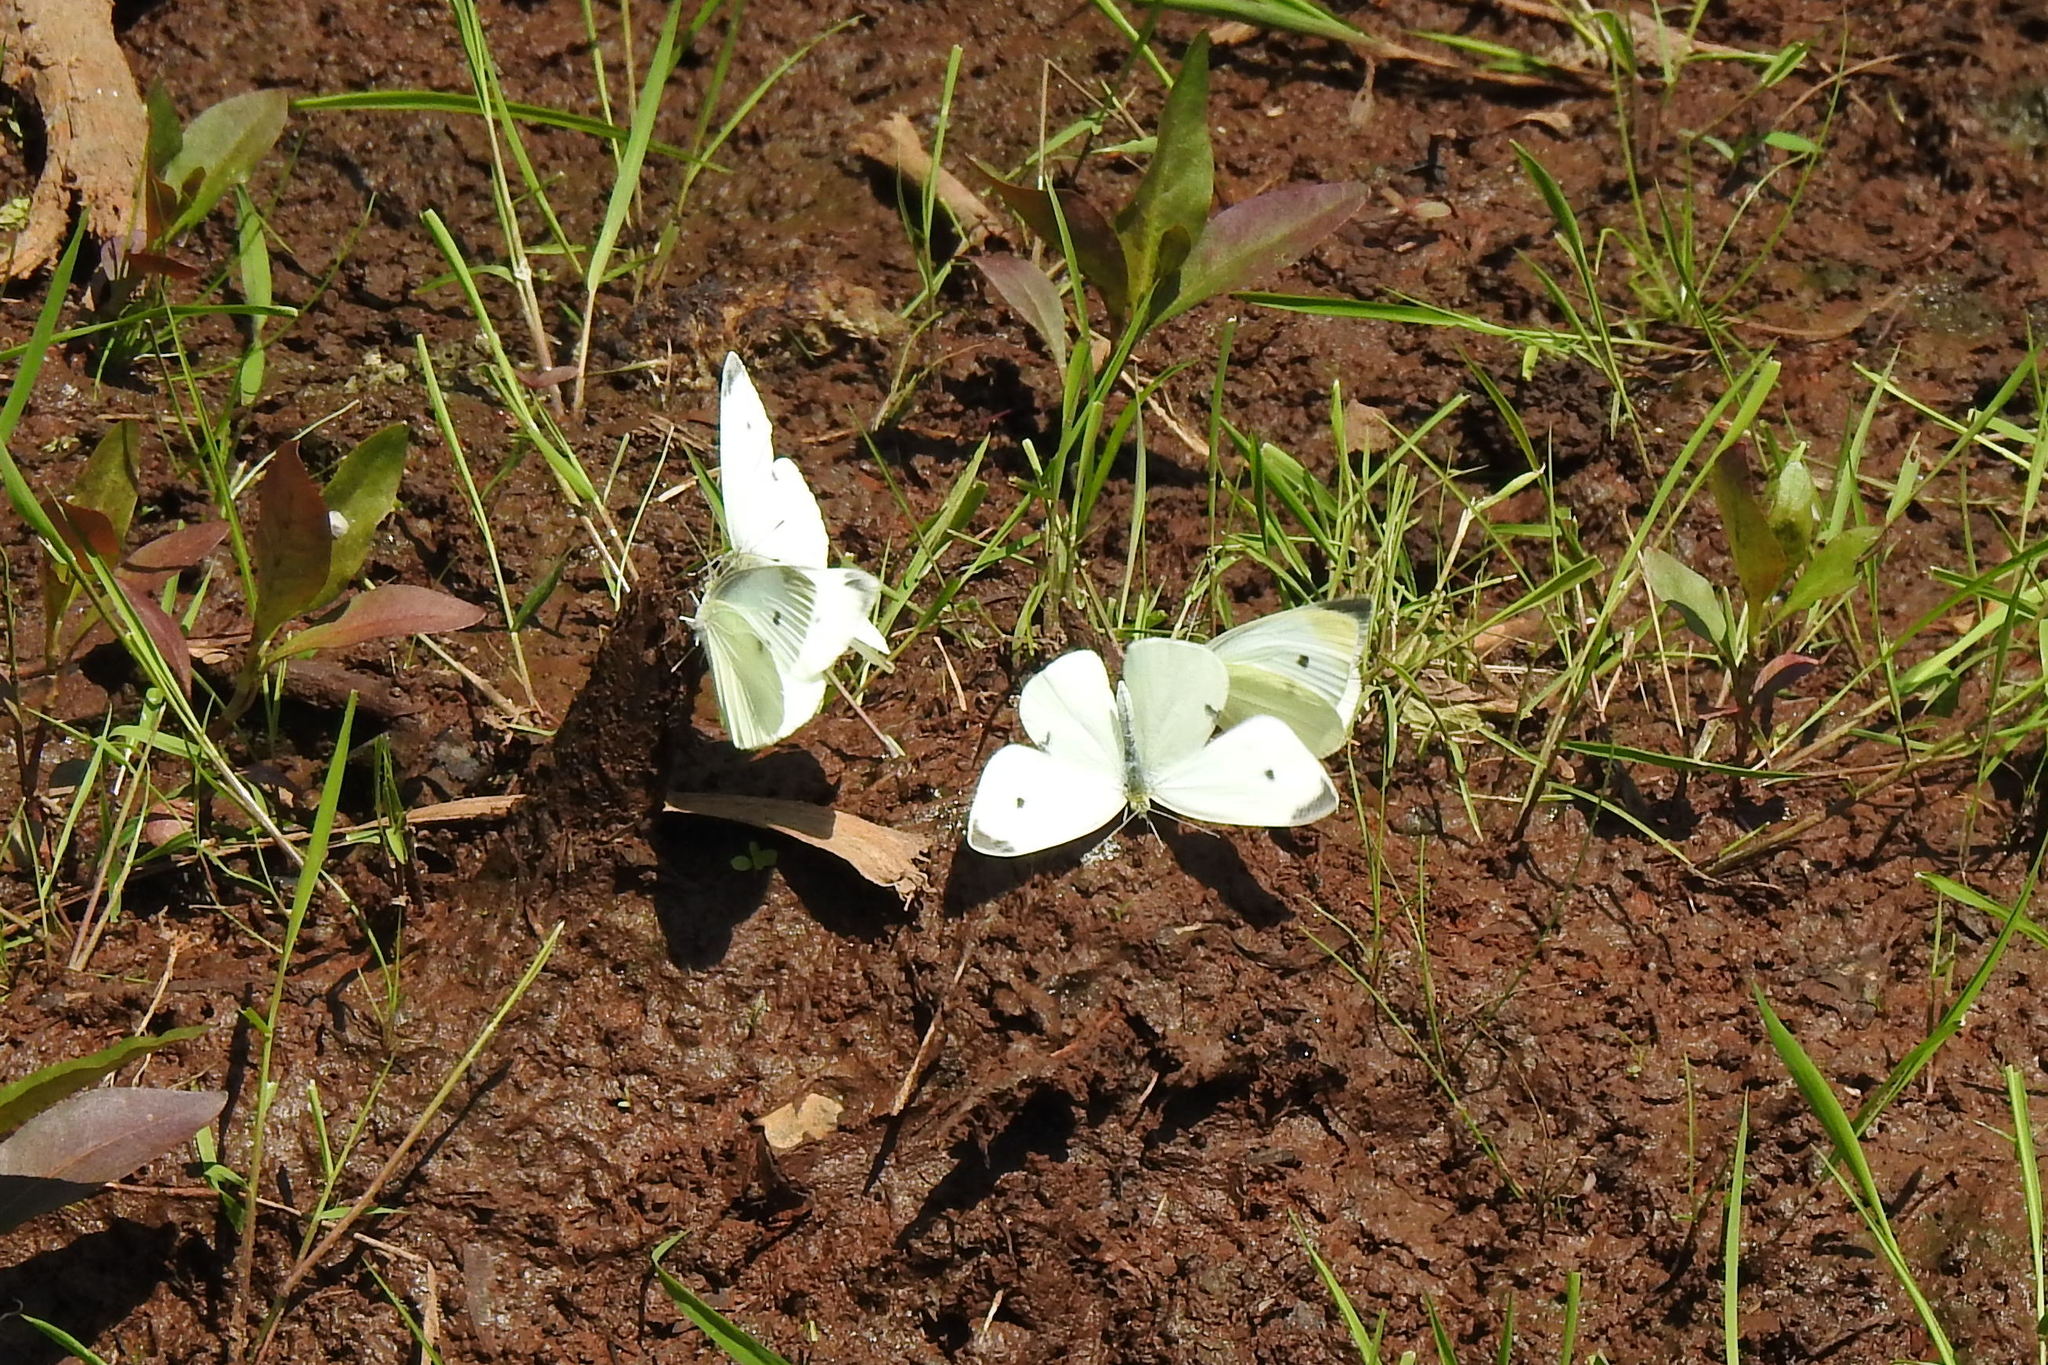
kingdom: Animalia
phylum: Arthropoda
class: Insecta
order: Lepidoptera
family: Pieridae
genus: Pieris
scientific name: Pieris rapae
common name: Small white
